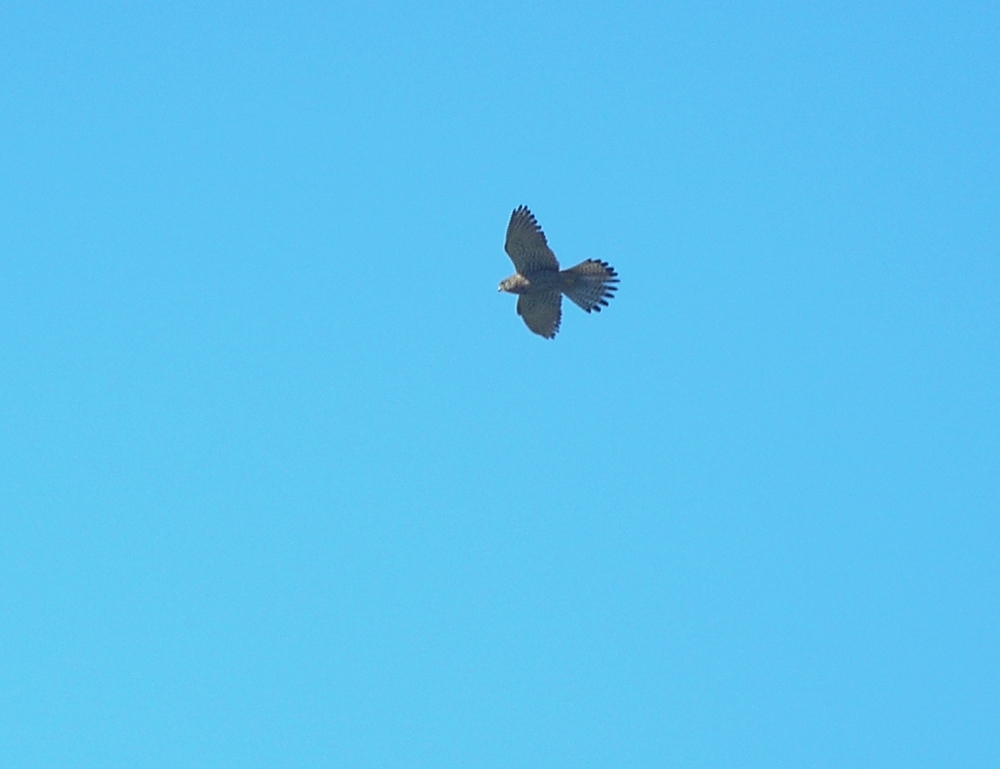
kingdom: Animalia
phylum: Chordata
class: Aves
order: Falconiformes
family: Falconidae
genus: Falco
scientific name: Falco tinnunculus
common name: Common kestrel
